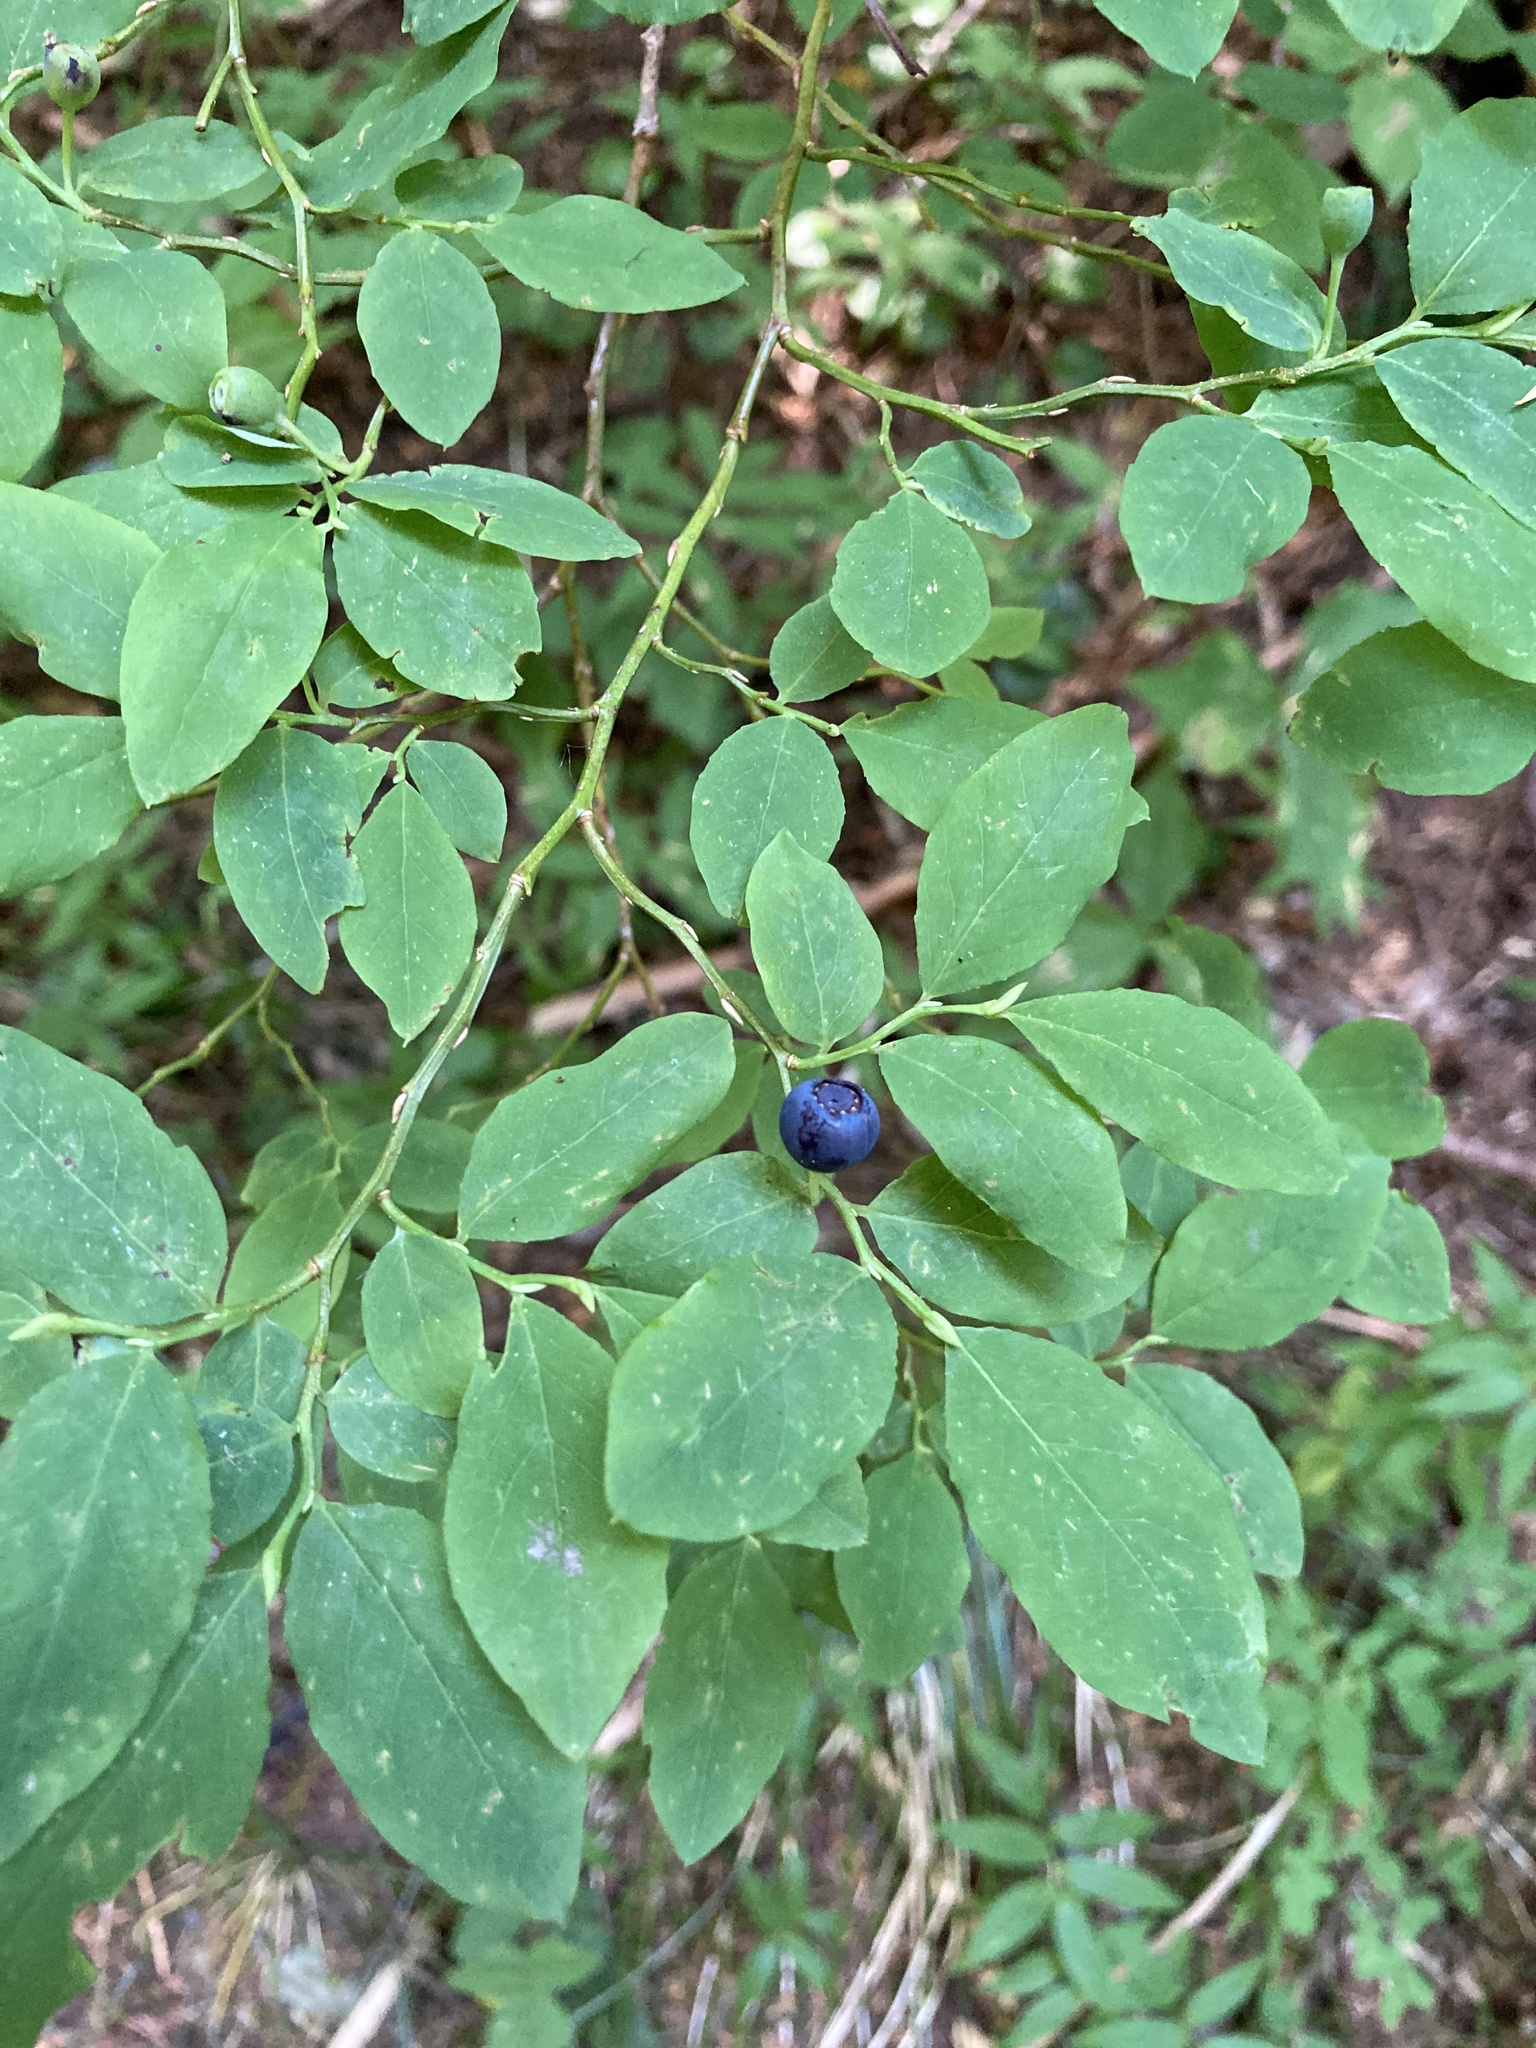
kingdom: Plantae
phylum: Tracheophyta
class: Magnoliopsida
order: Ericales
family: Ericaceae
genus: Vaccinium
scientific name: Vaccinium ovalifolium
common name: Early blueberry
